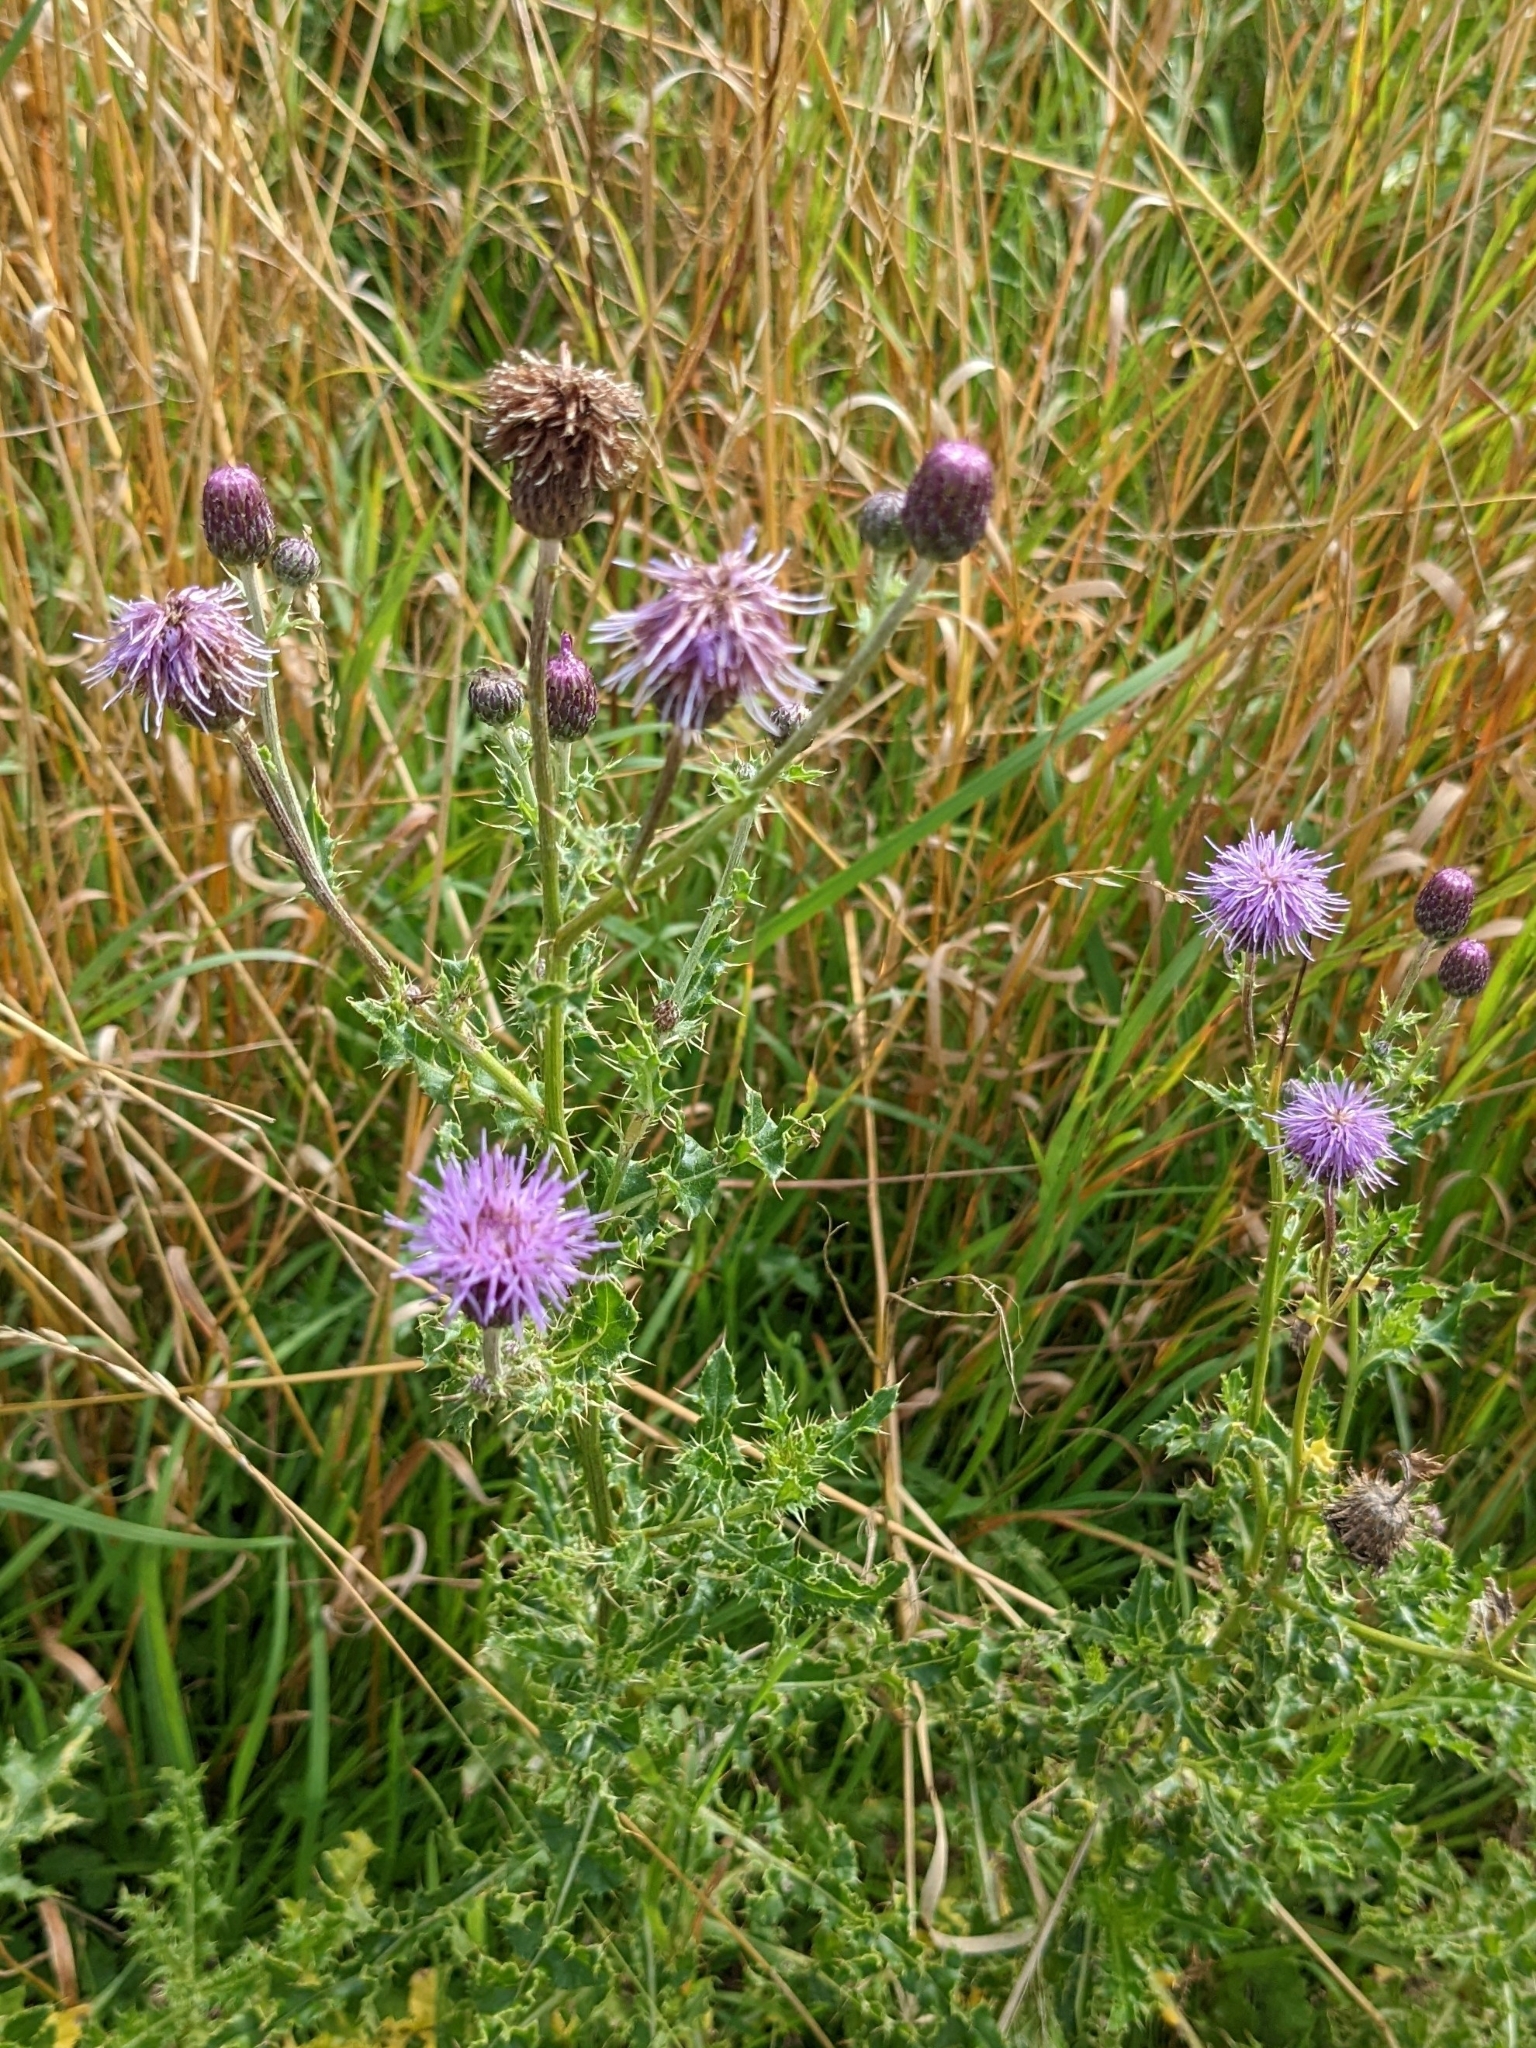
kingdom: Plantae
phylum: Tracheophyta
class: Magnoliopsida
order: Asterales
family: Asteraceae
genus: Cirsium
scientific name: Cirsium arvense
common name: Creeping thistle
